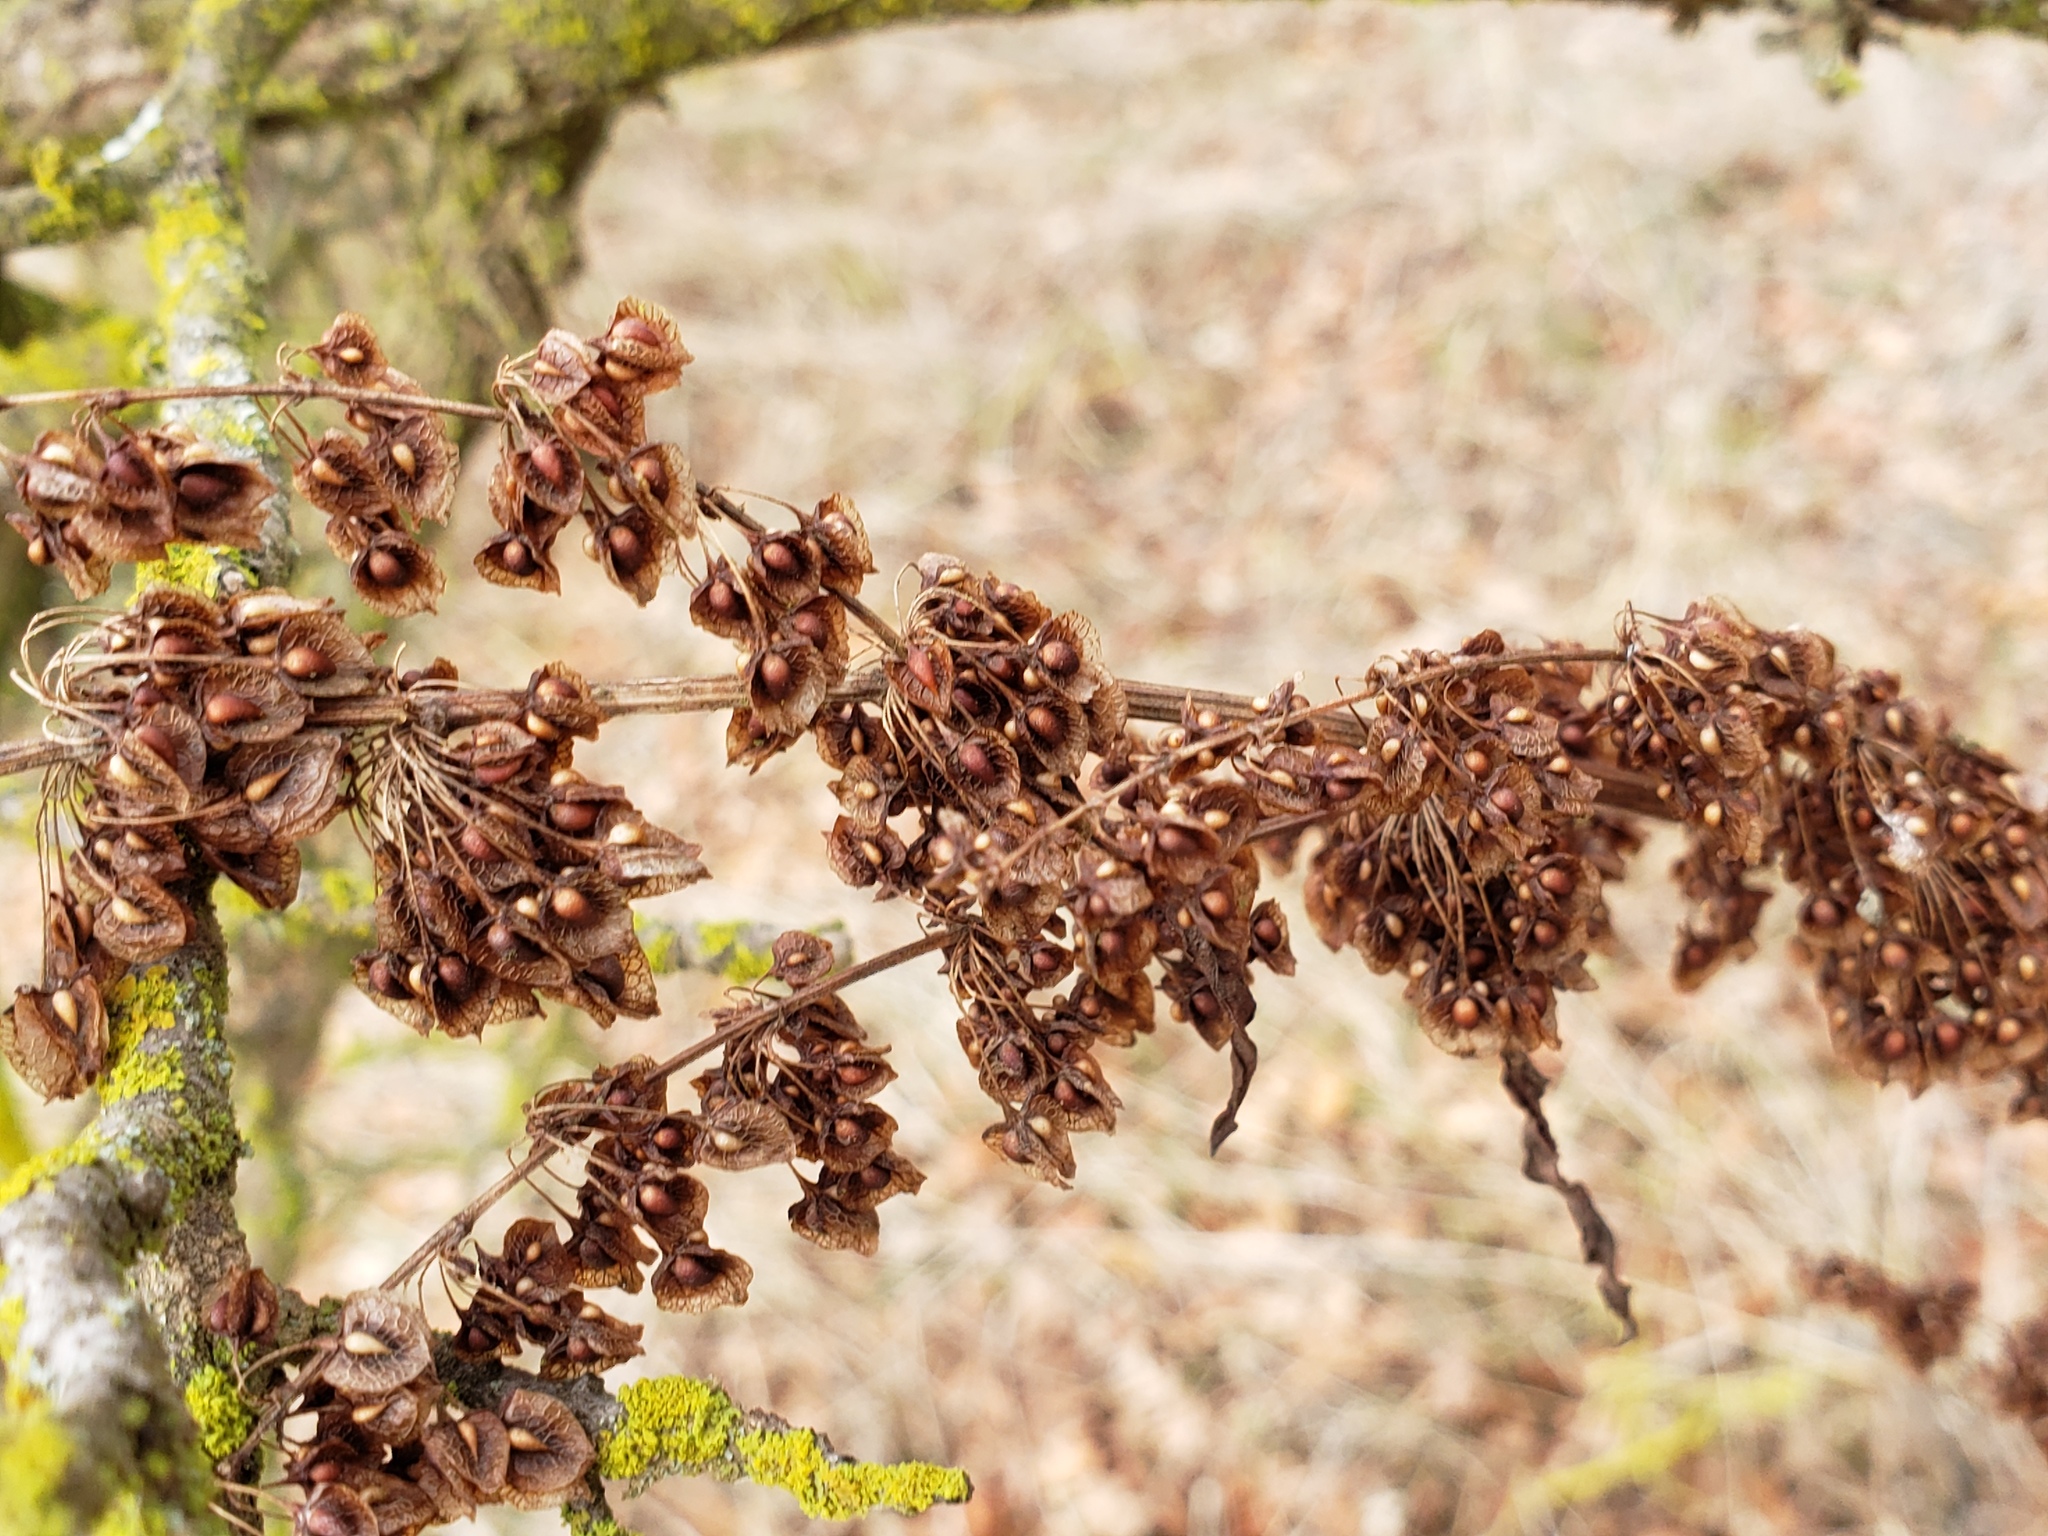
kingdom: Plantae
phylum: Tracheophyta
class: Magnoliopsida
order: Caryophyllales
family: Polygonaceae
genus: Rumex
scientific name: Rumex crispus
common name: Curled dock
